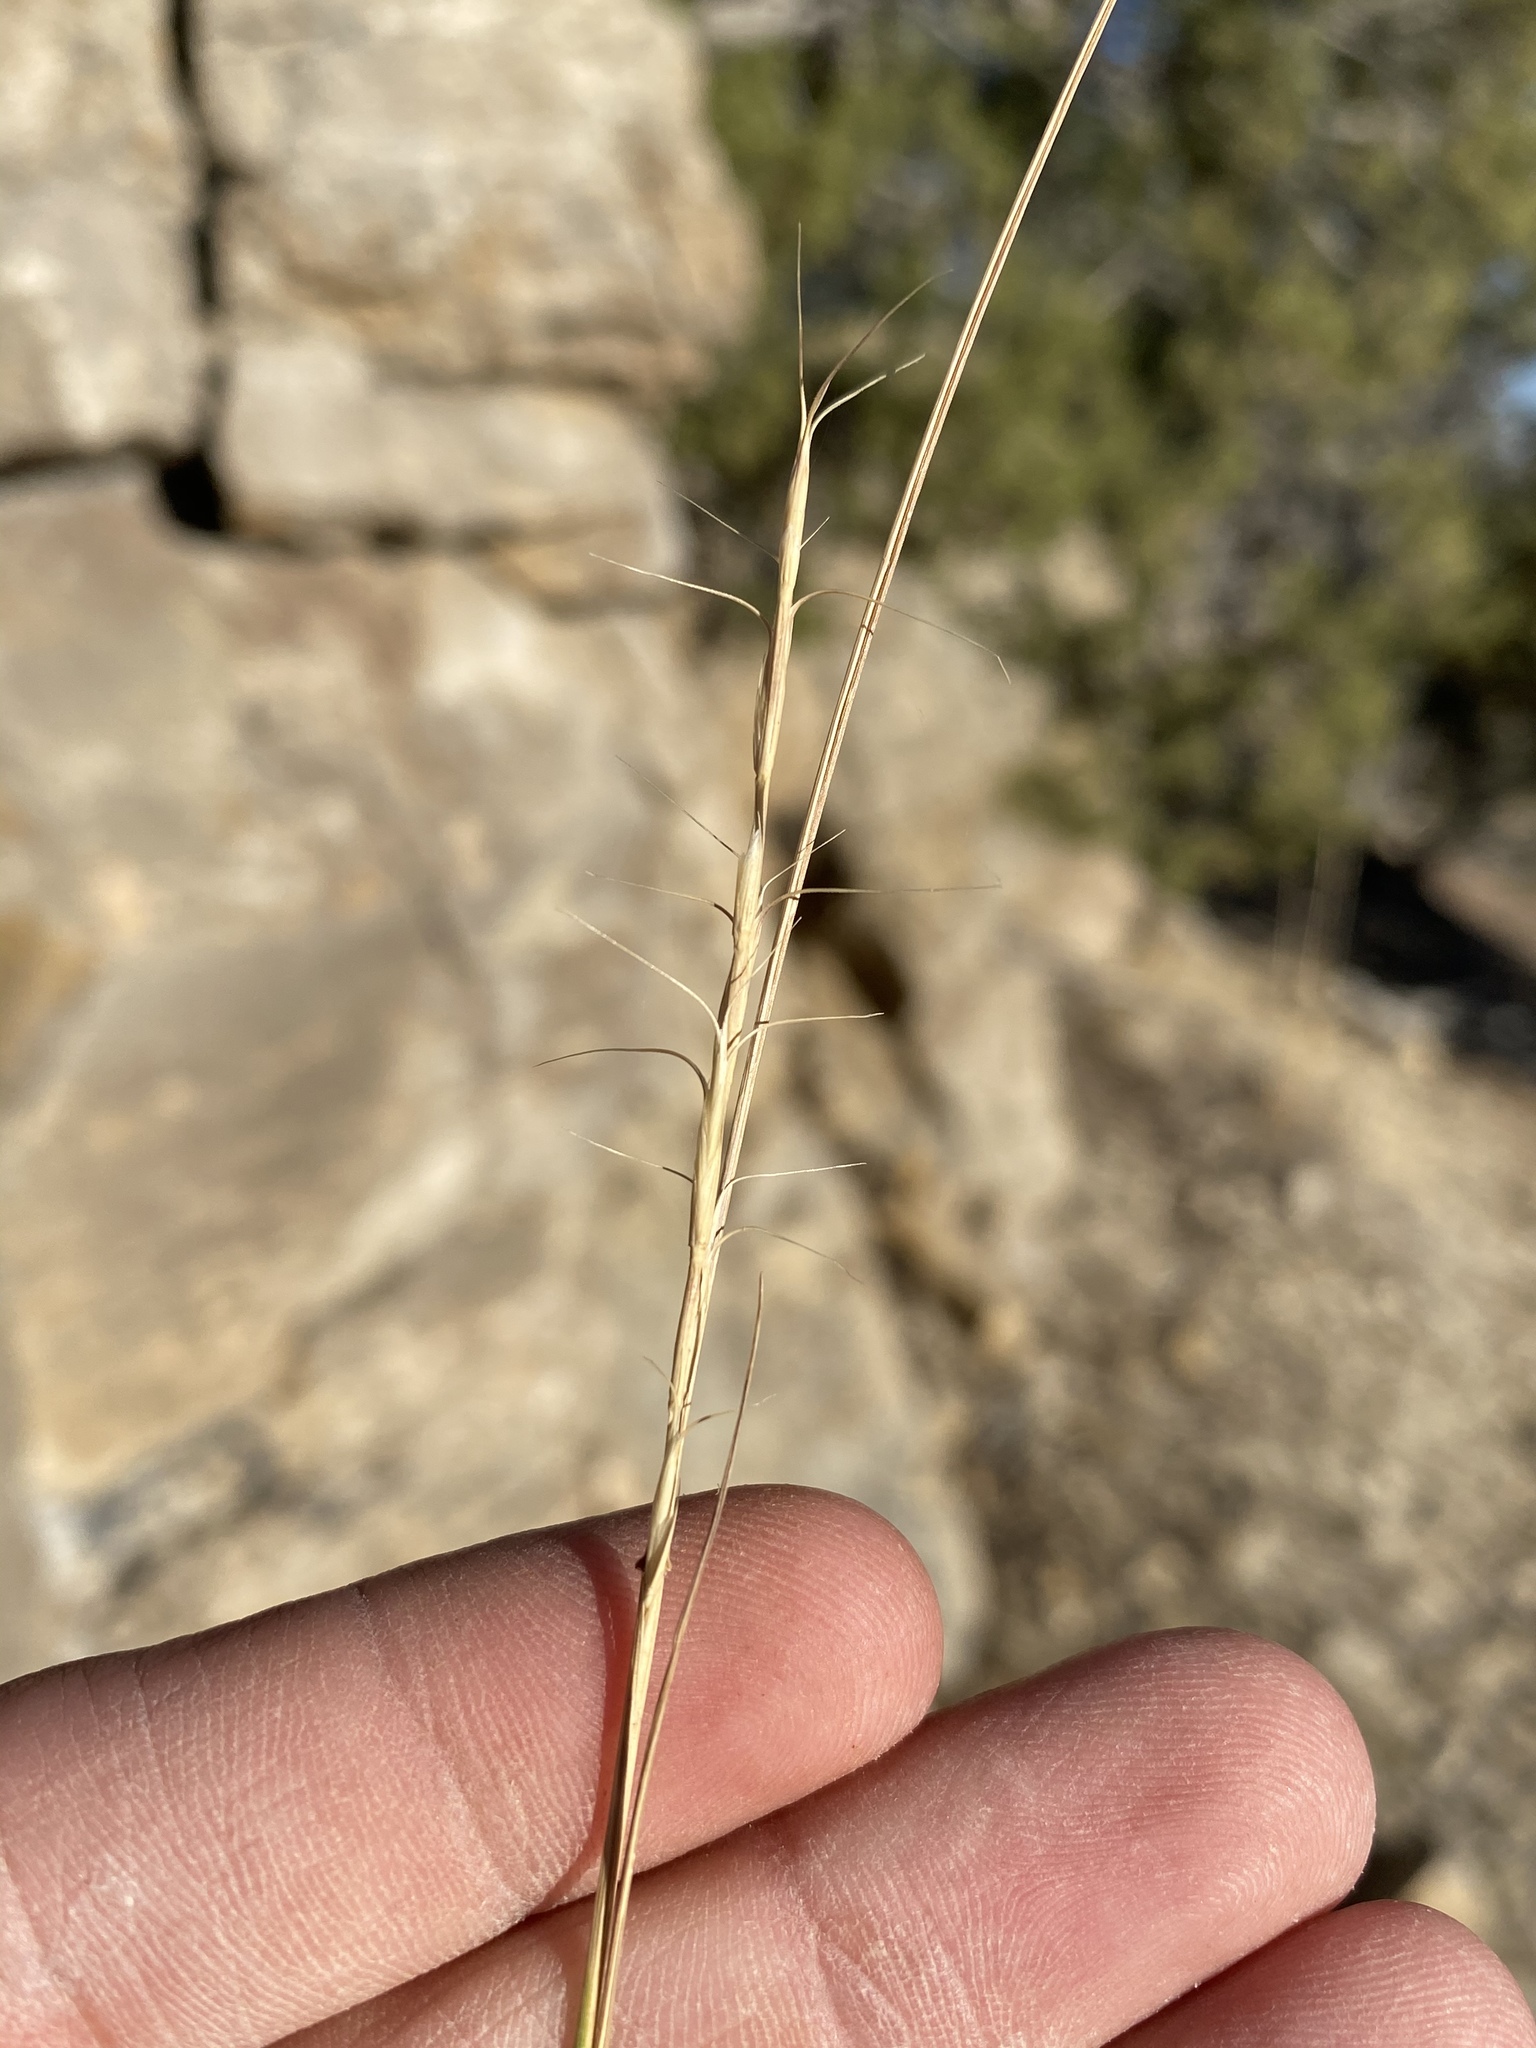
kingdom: Plantae
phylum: Tracheophyta
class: Liliopsida
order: Poales
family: Poaceae
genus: Pseudoroegneria
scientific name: Pseudoroegneria spicata
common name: Bluebunch wheatgrass
